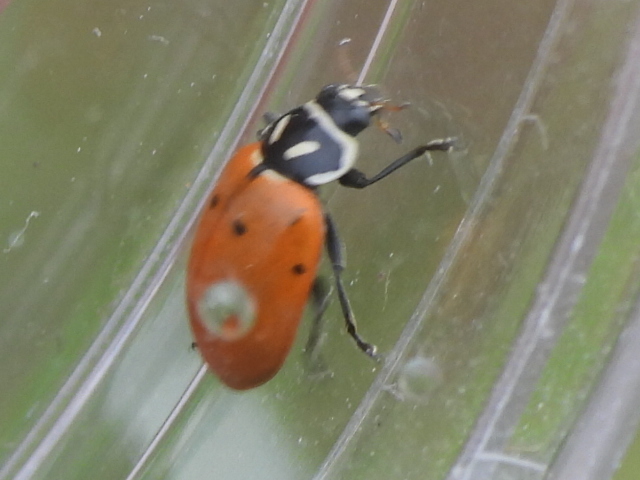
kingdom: Animalia
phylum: Arthropoda
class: Insecta
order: Coleoptera
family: Coccinellidae
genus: Hippodamia
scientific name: Hippodamia convergens
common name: Convergent lady beetle
